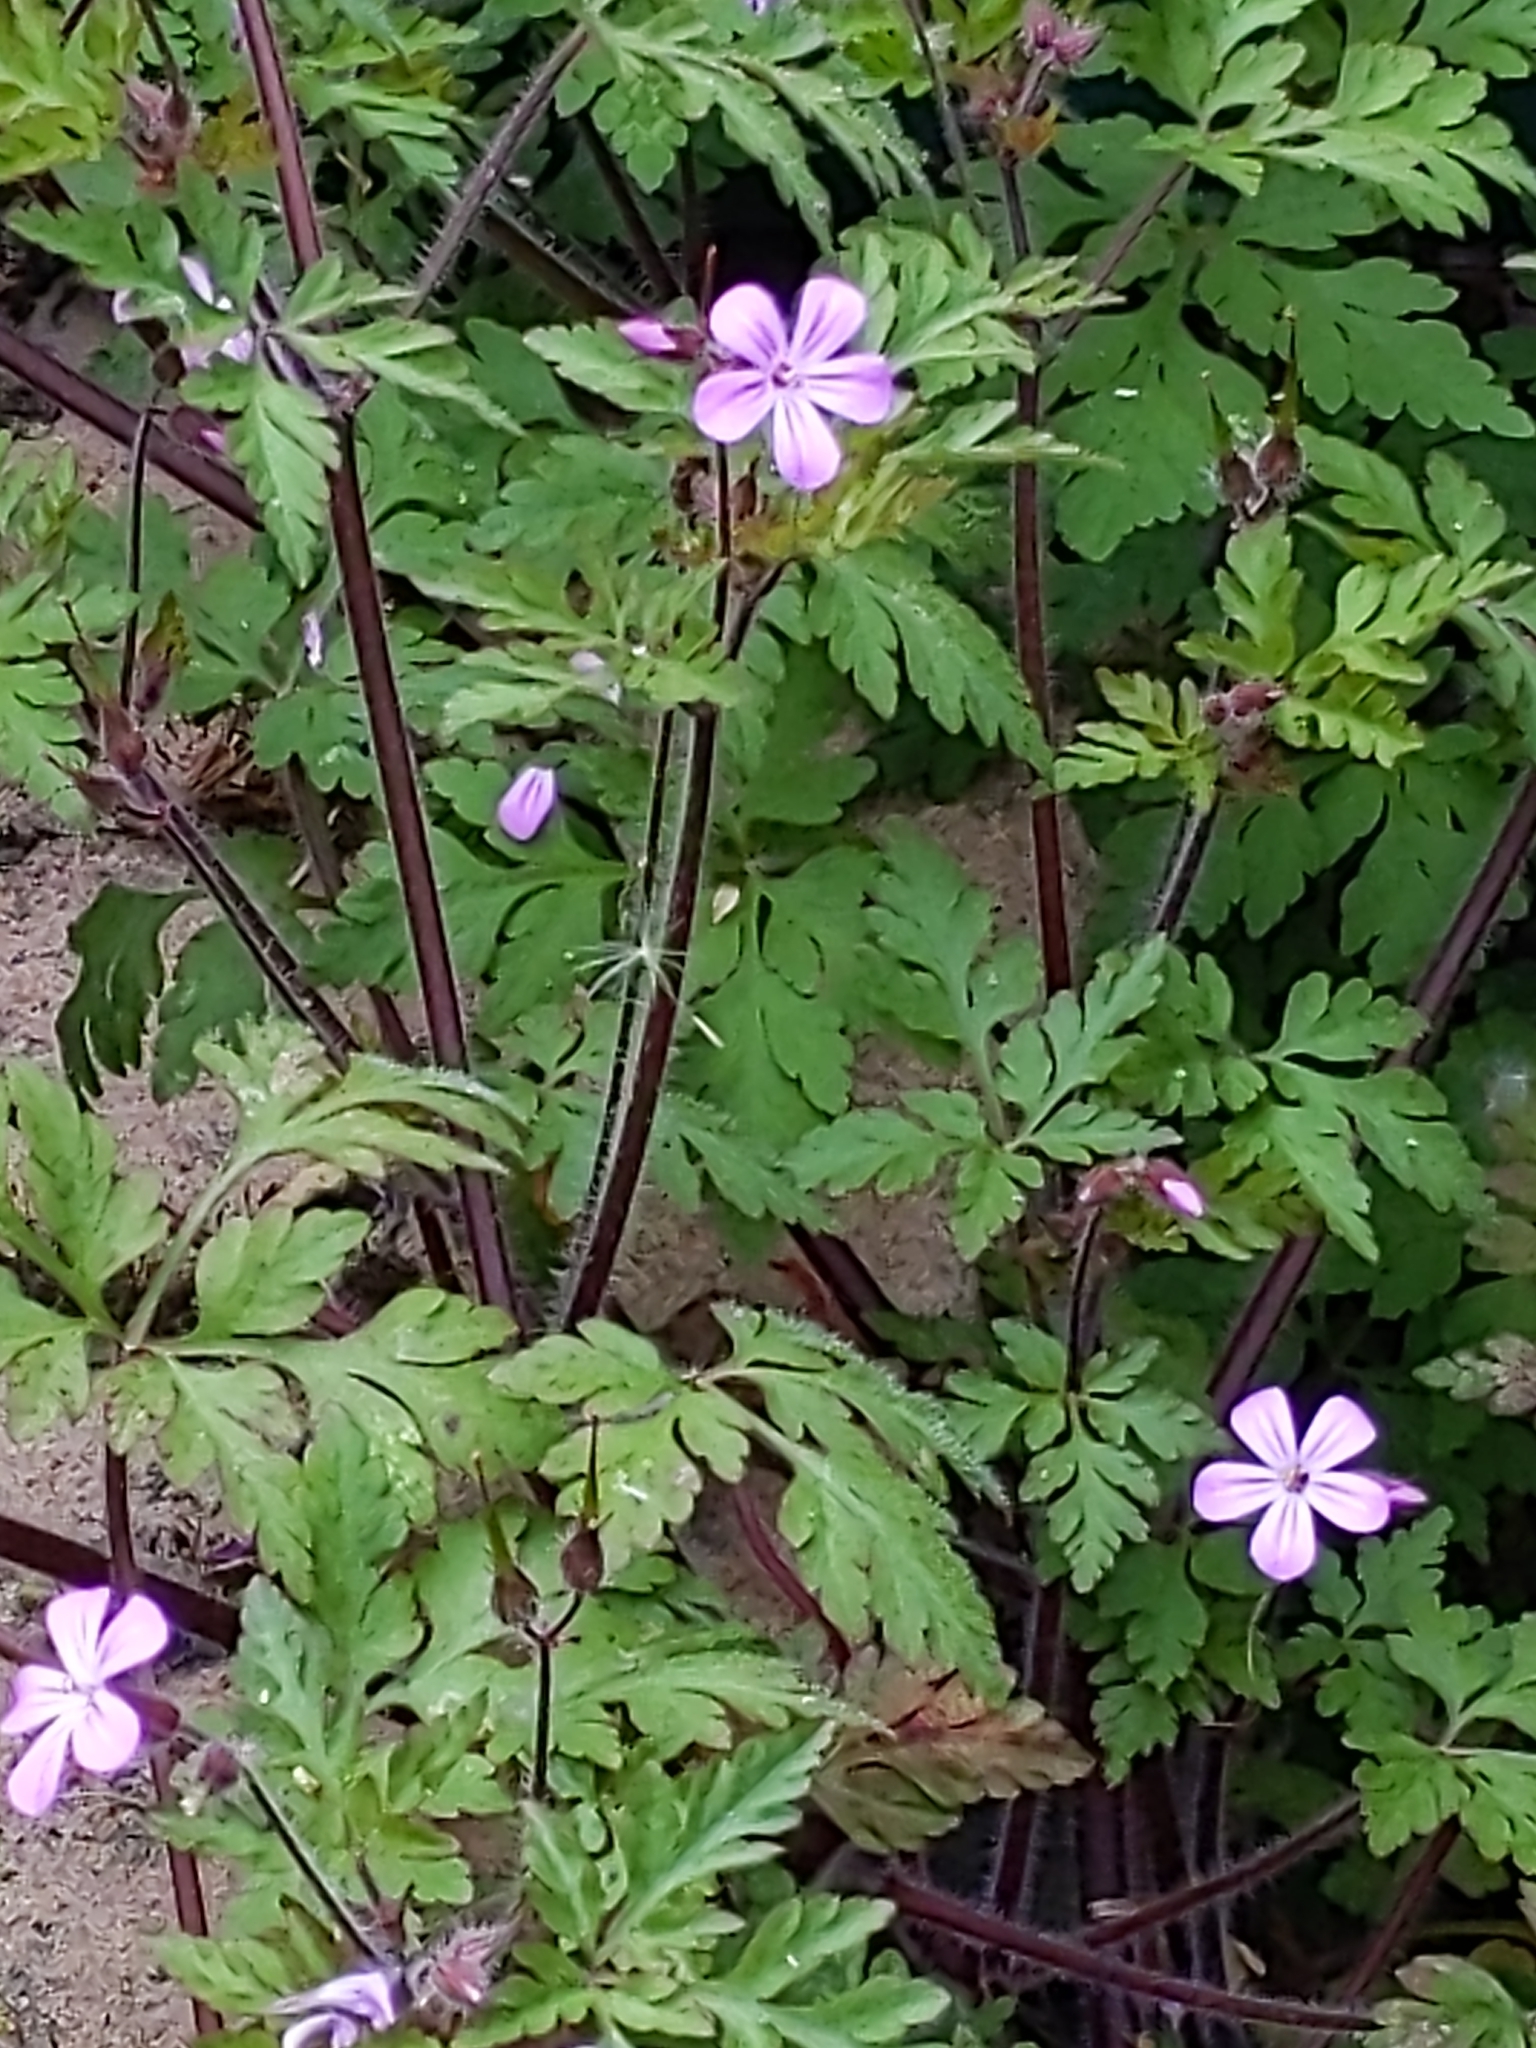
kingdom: Plantae
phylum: Tracheophyta
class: Magnoliopsida
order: Geraniales
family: Geraniaceae
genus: Geranium
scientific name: Geranium robertianum
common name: Herb-robert
